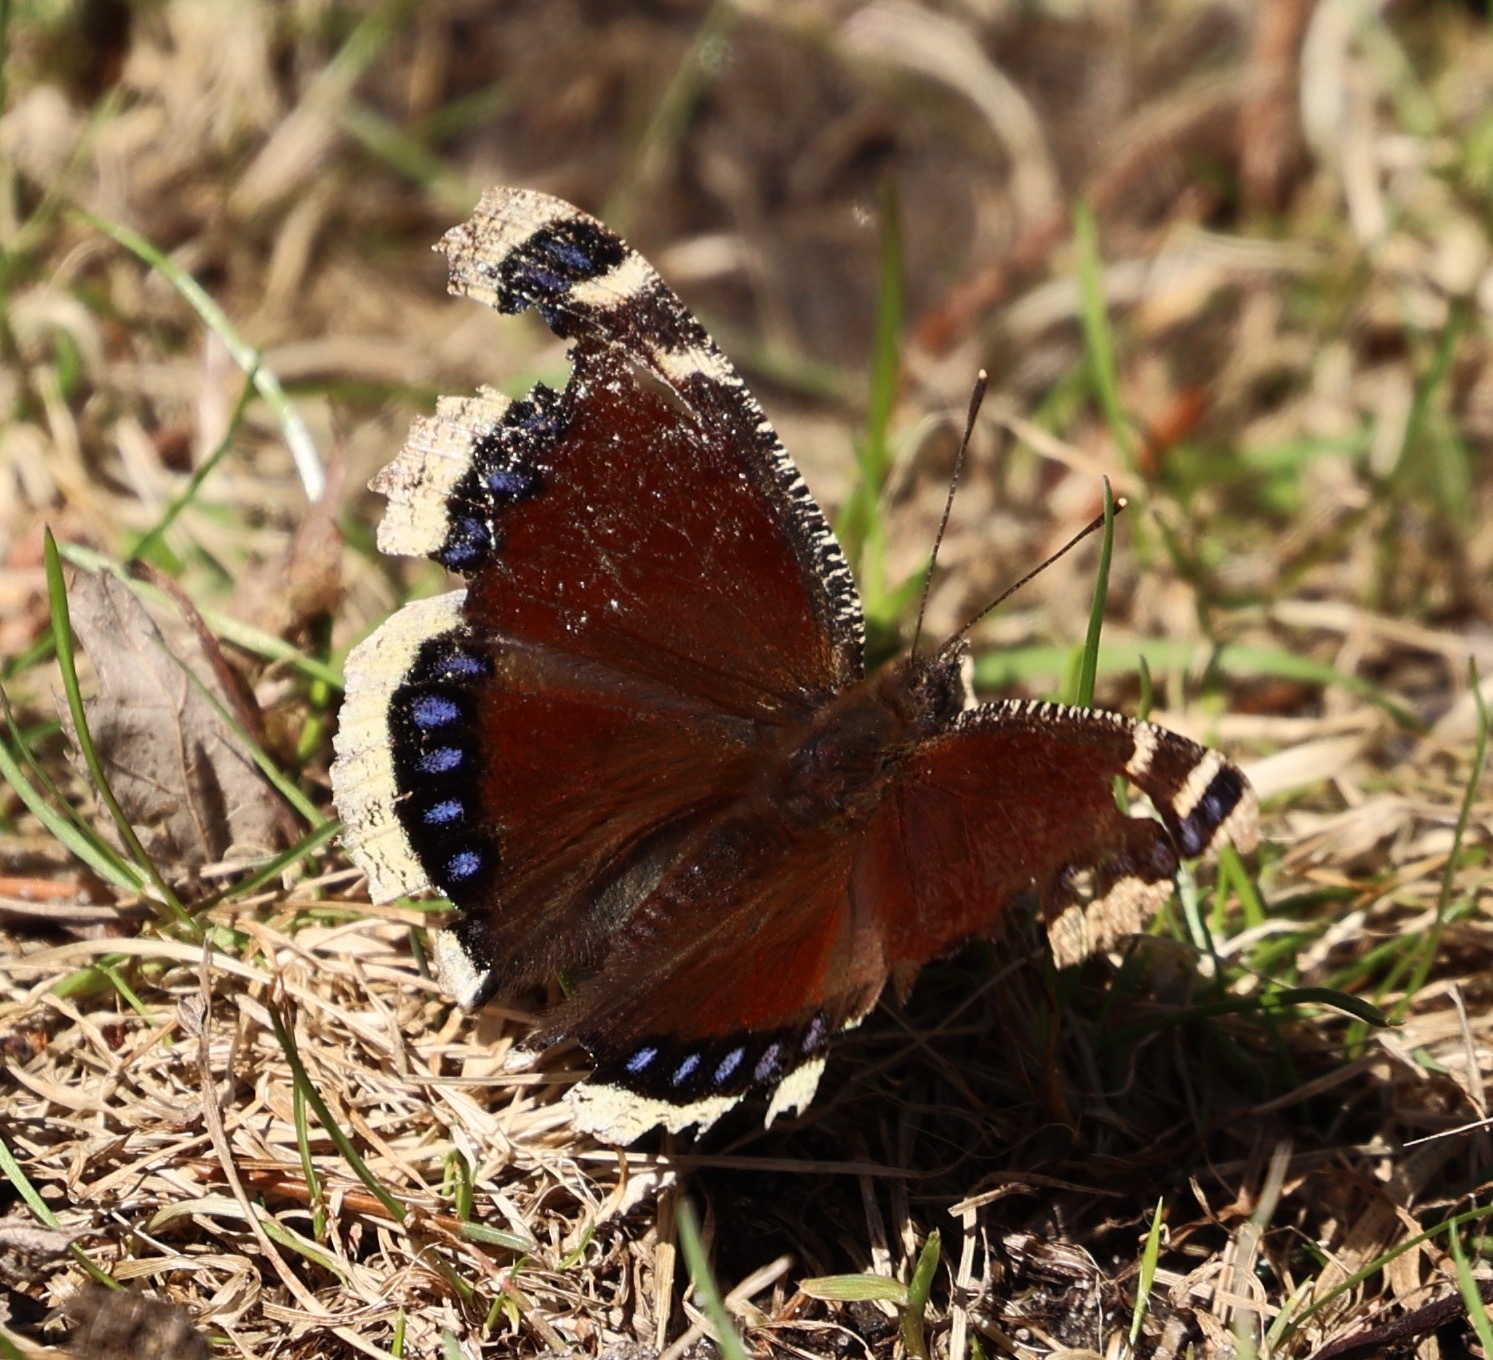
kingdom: Animalia
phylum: Arthropoda
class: Insecta
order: Lepidoptera
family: Nymphalidae
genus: Nymphalis
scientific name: Nymphalis antiopa
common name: Camberwell beauty
